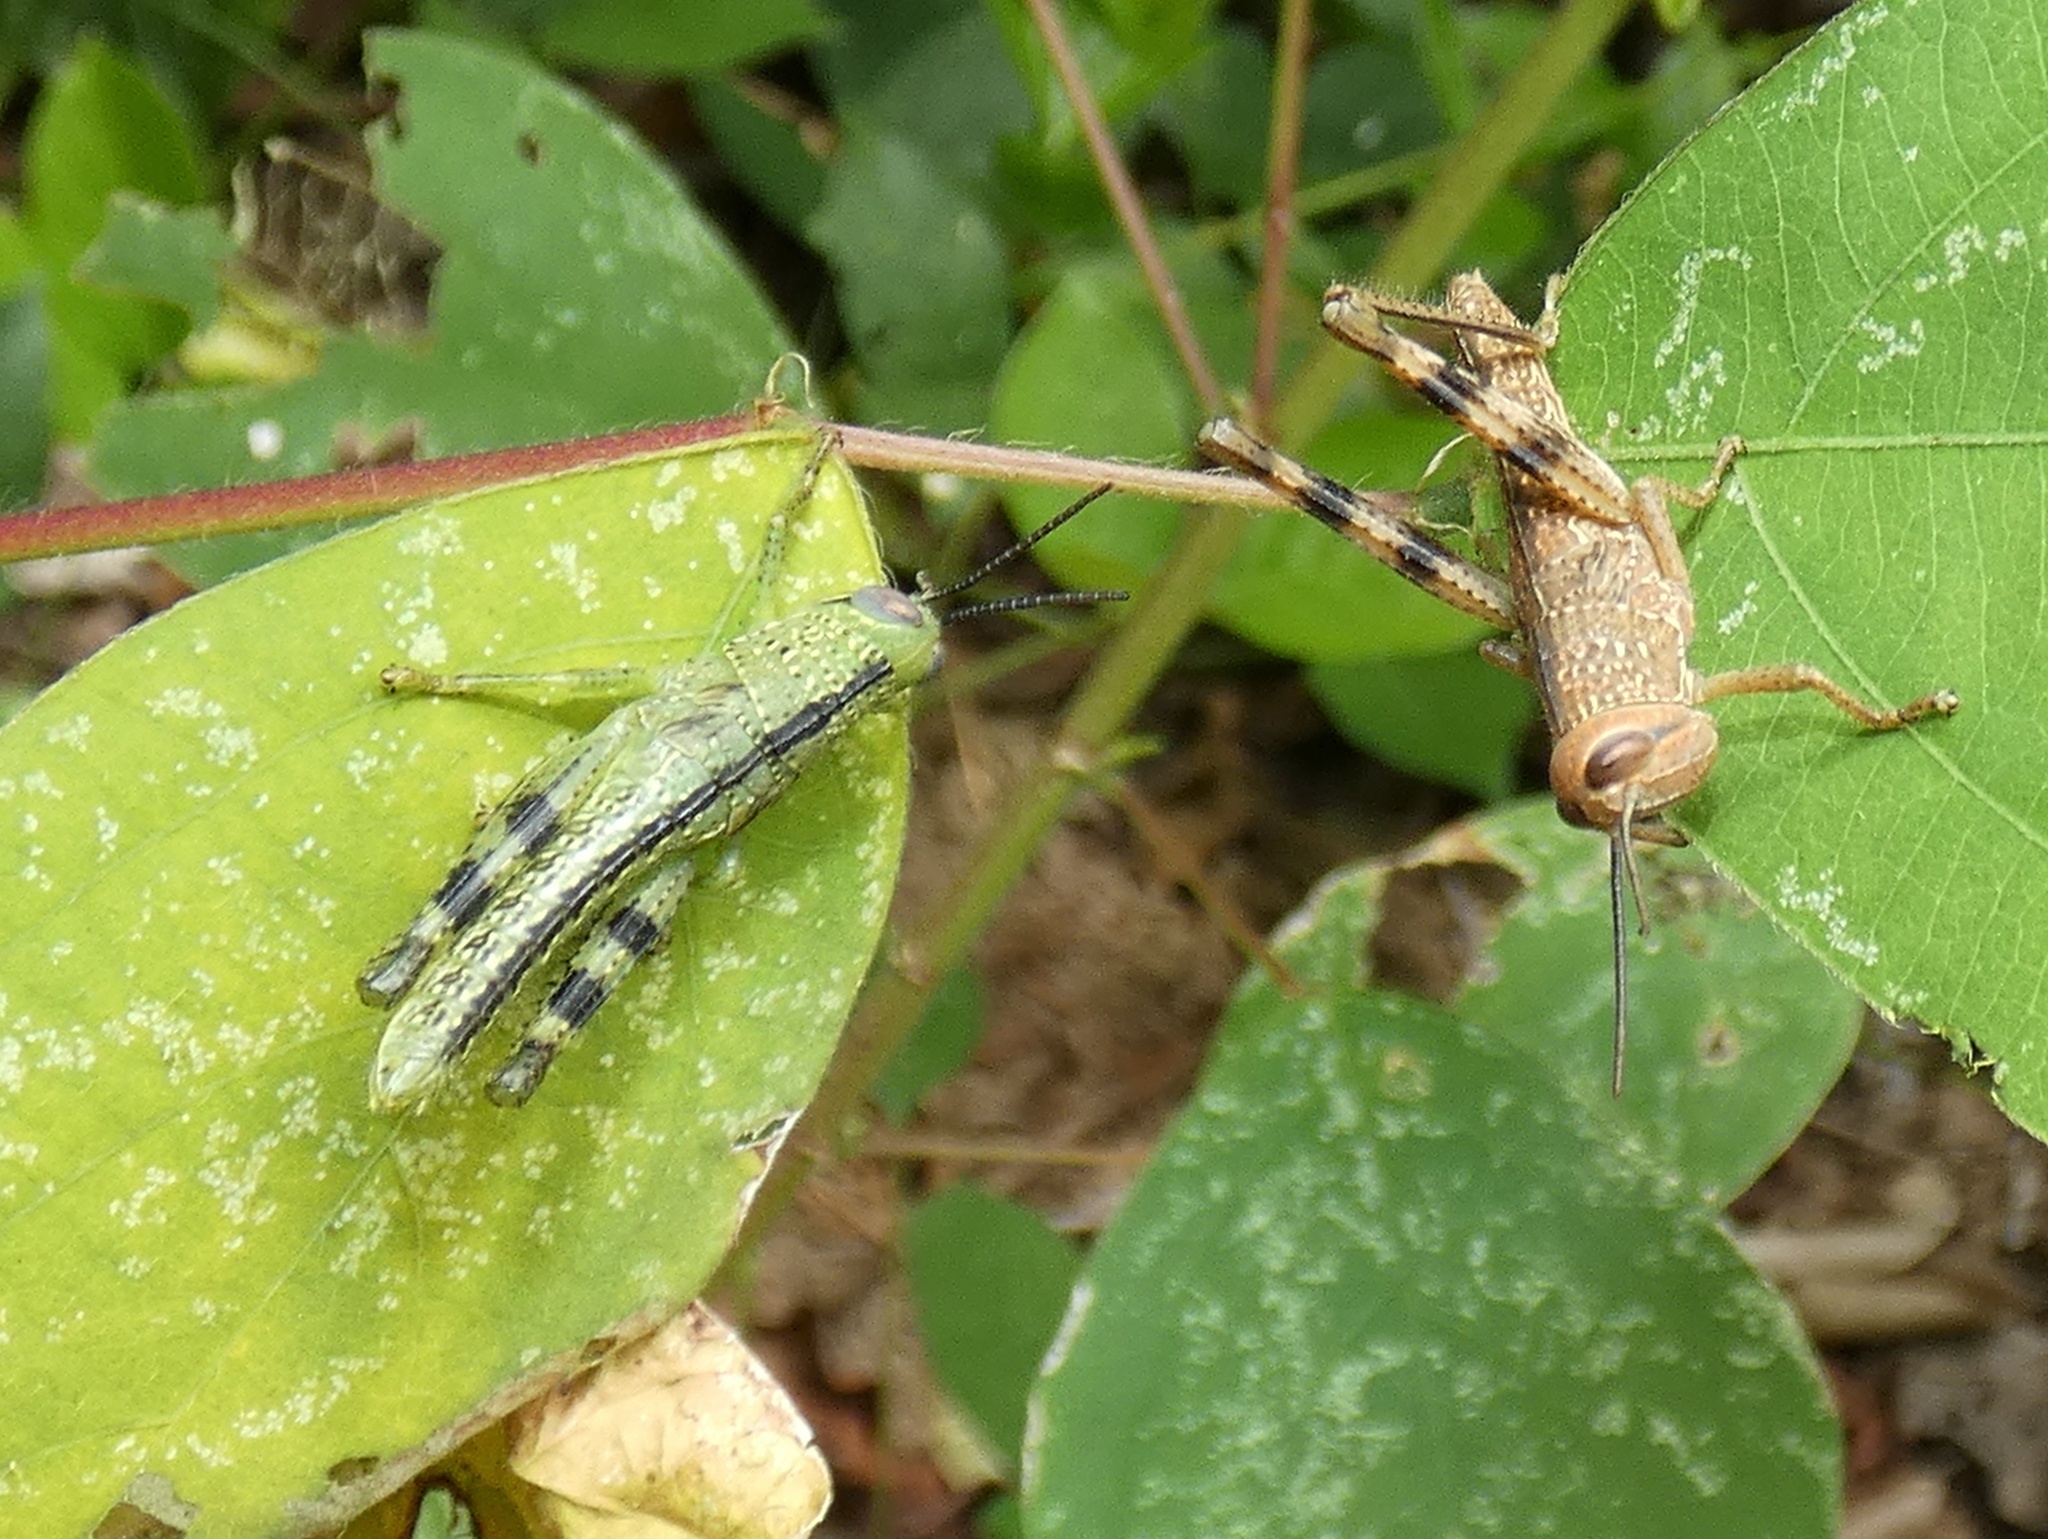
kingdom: Animalia
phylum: Arthropoda
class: Insecta
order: Orthoptera
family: Acrididae
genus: Valanga
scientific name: Valanga irregularis
